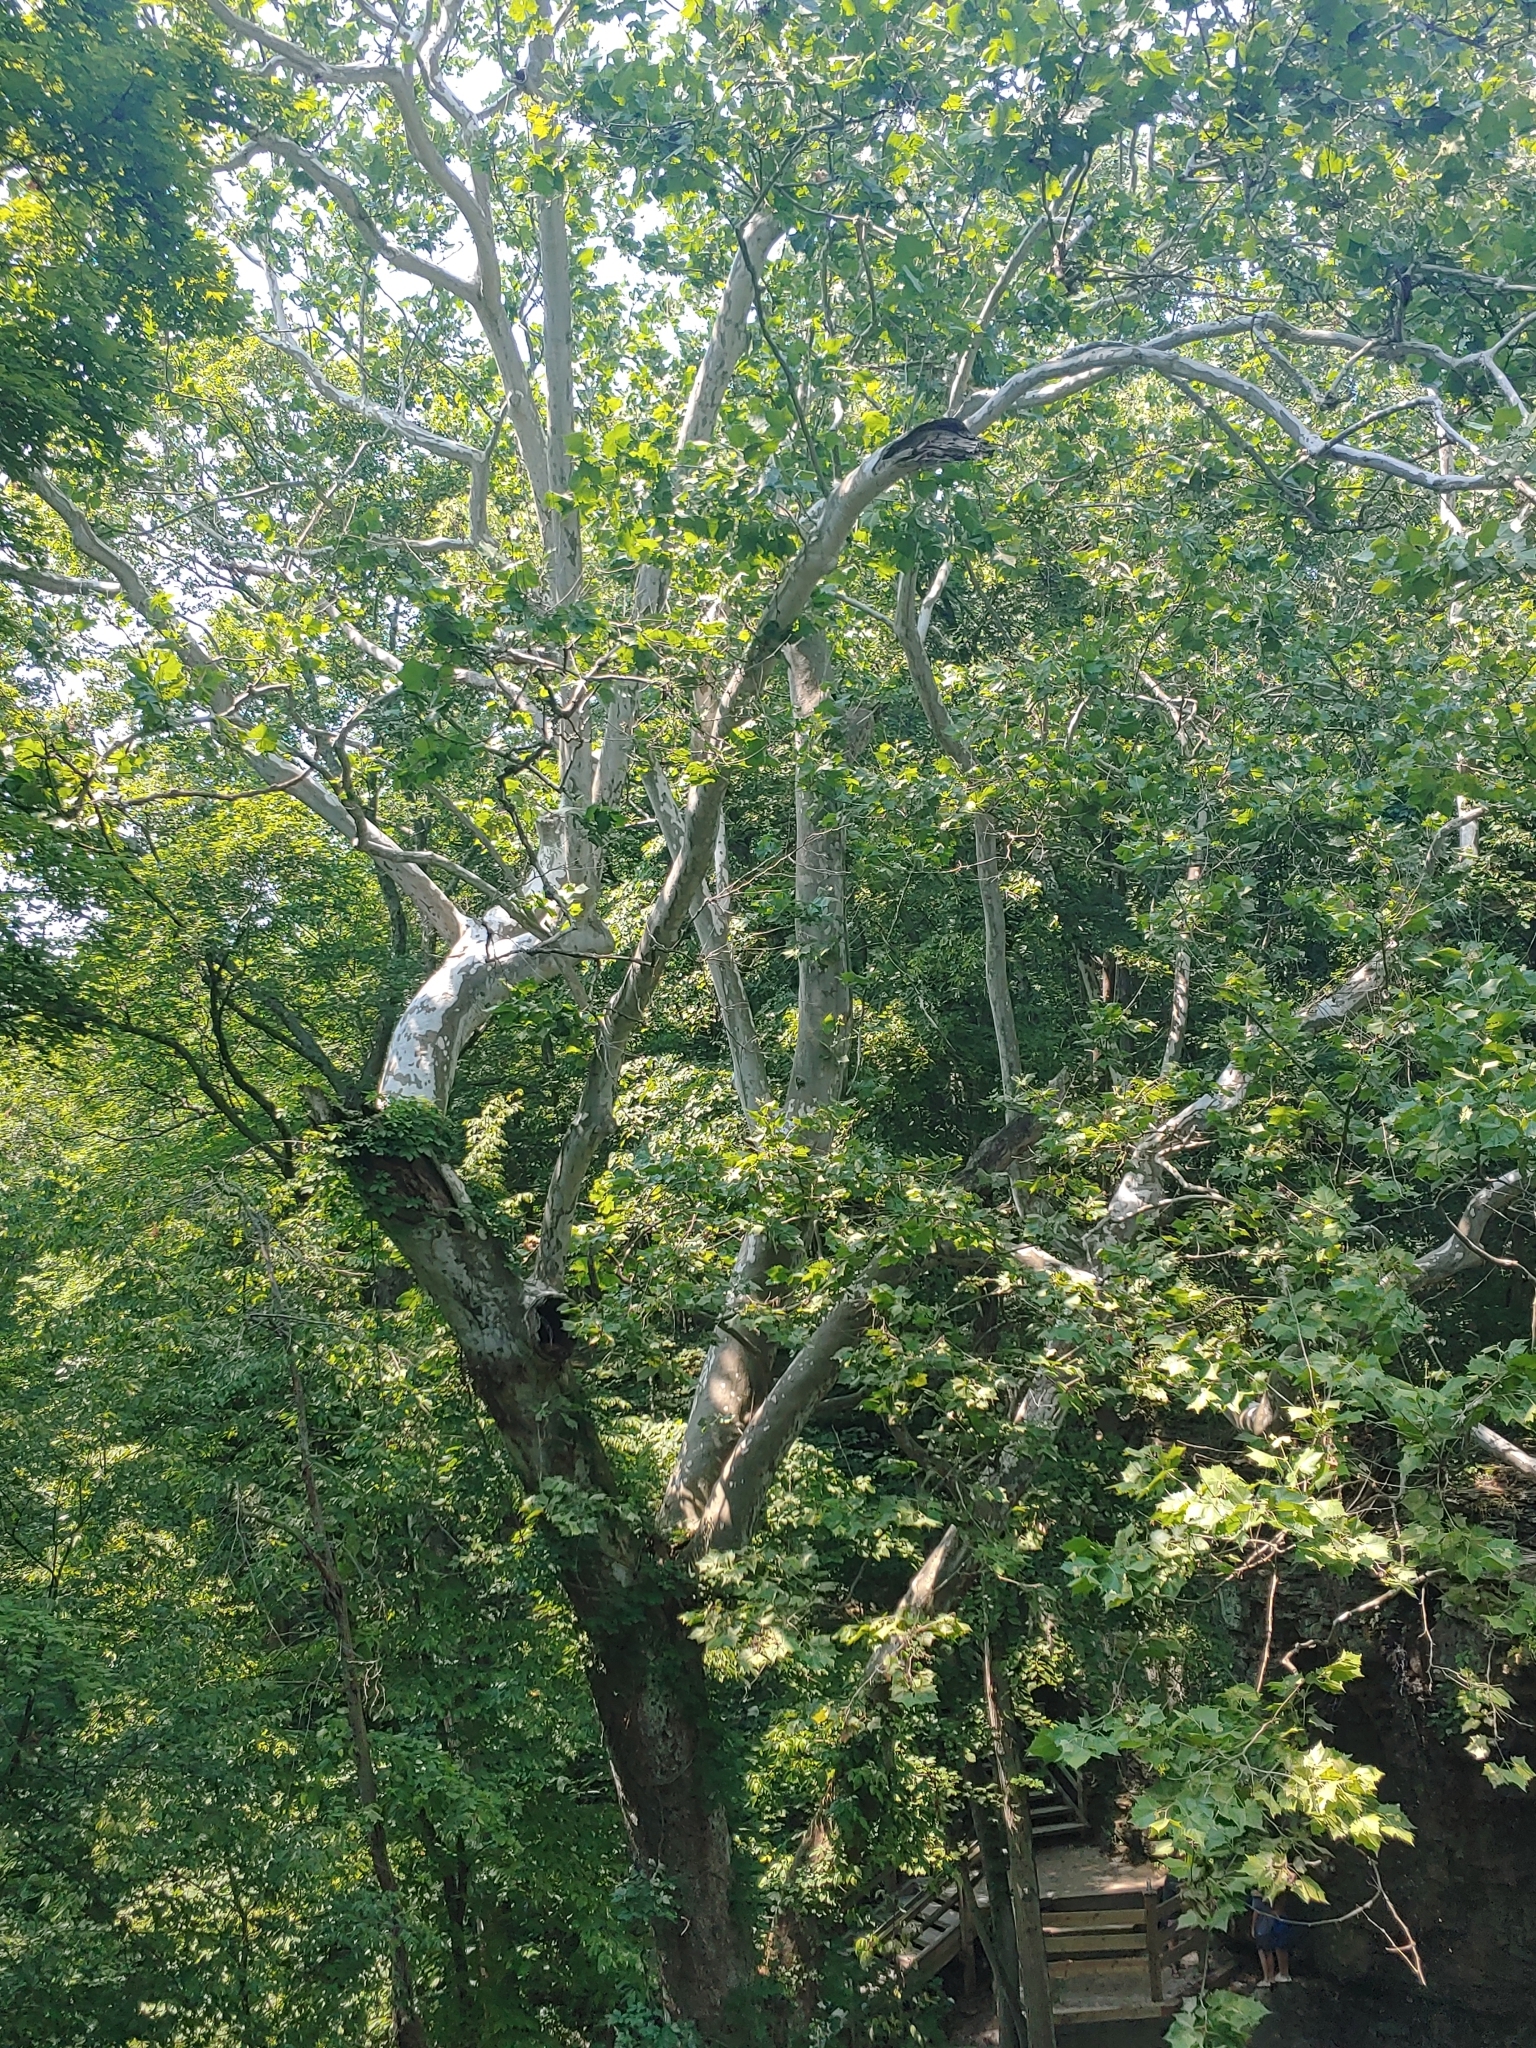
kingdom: Plantae
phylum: Tracheophyta
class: Magnoliopsida
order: Proteales
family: Platanaceae
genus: Platanus
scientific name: Platanus occidentalis
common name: American sycamore
